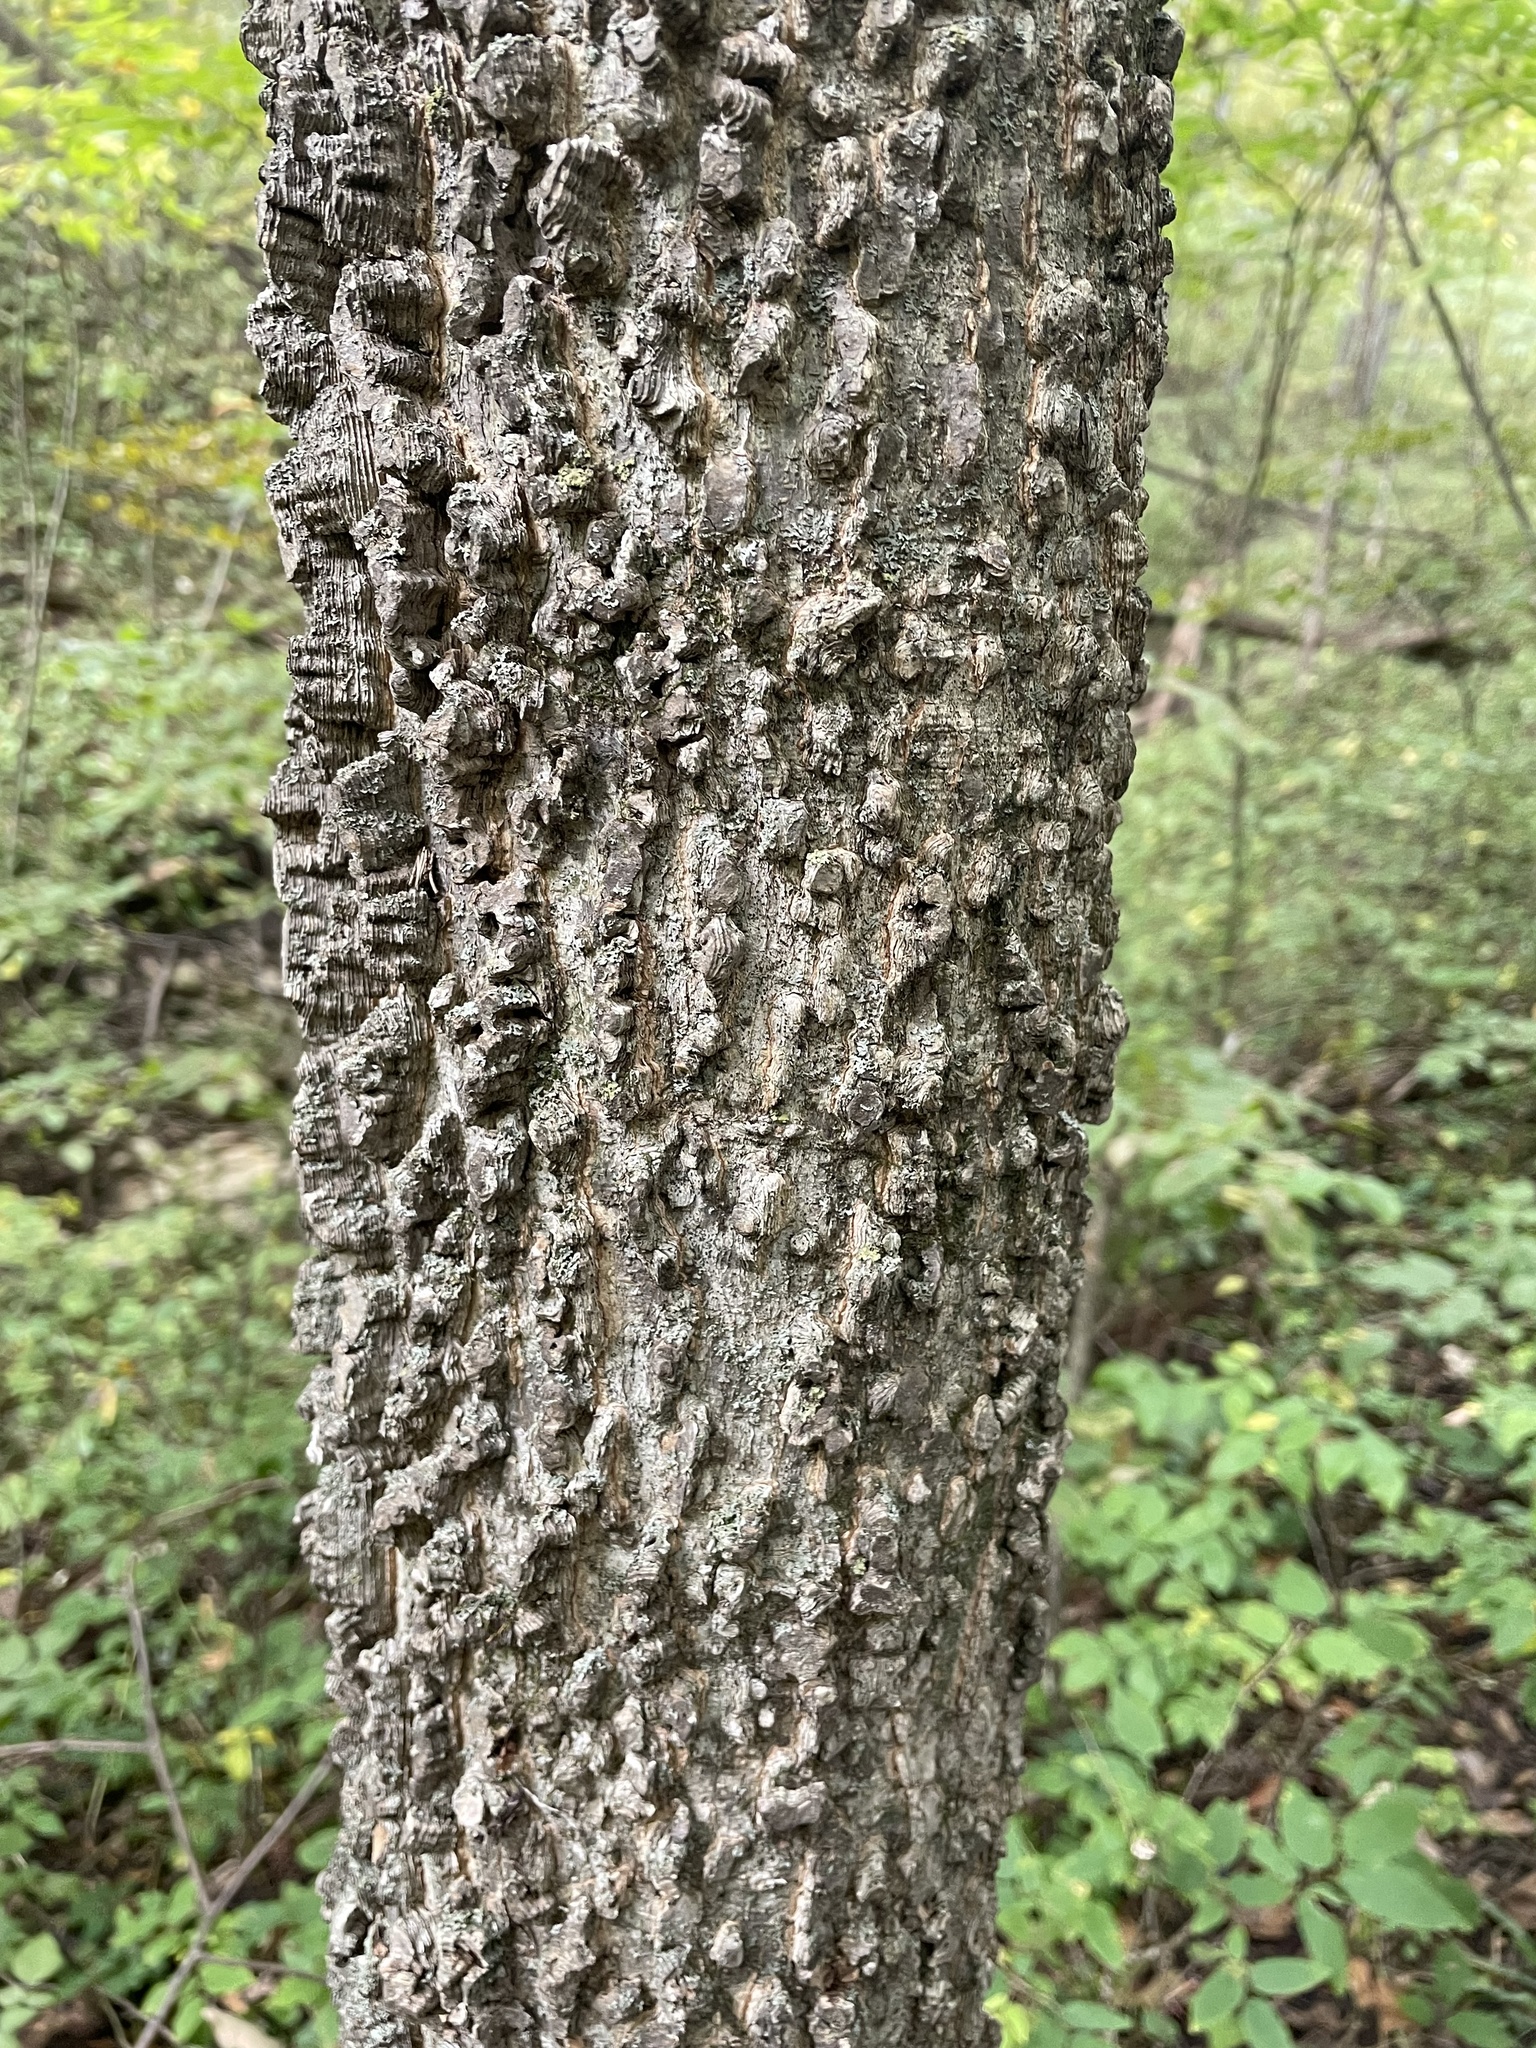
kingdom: Plantae
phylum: Tracheophyta
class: Magnoliopsida
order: Rosales
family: Cannabaceae
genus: Celtis
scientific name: Celtis occidentalis
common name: Common hackberry
